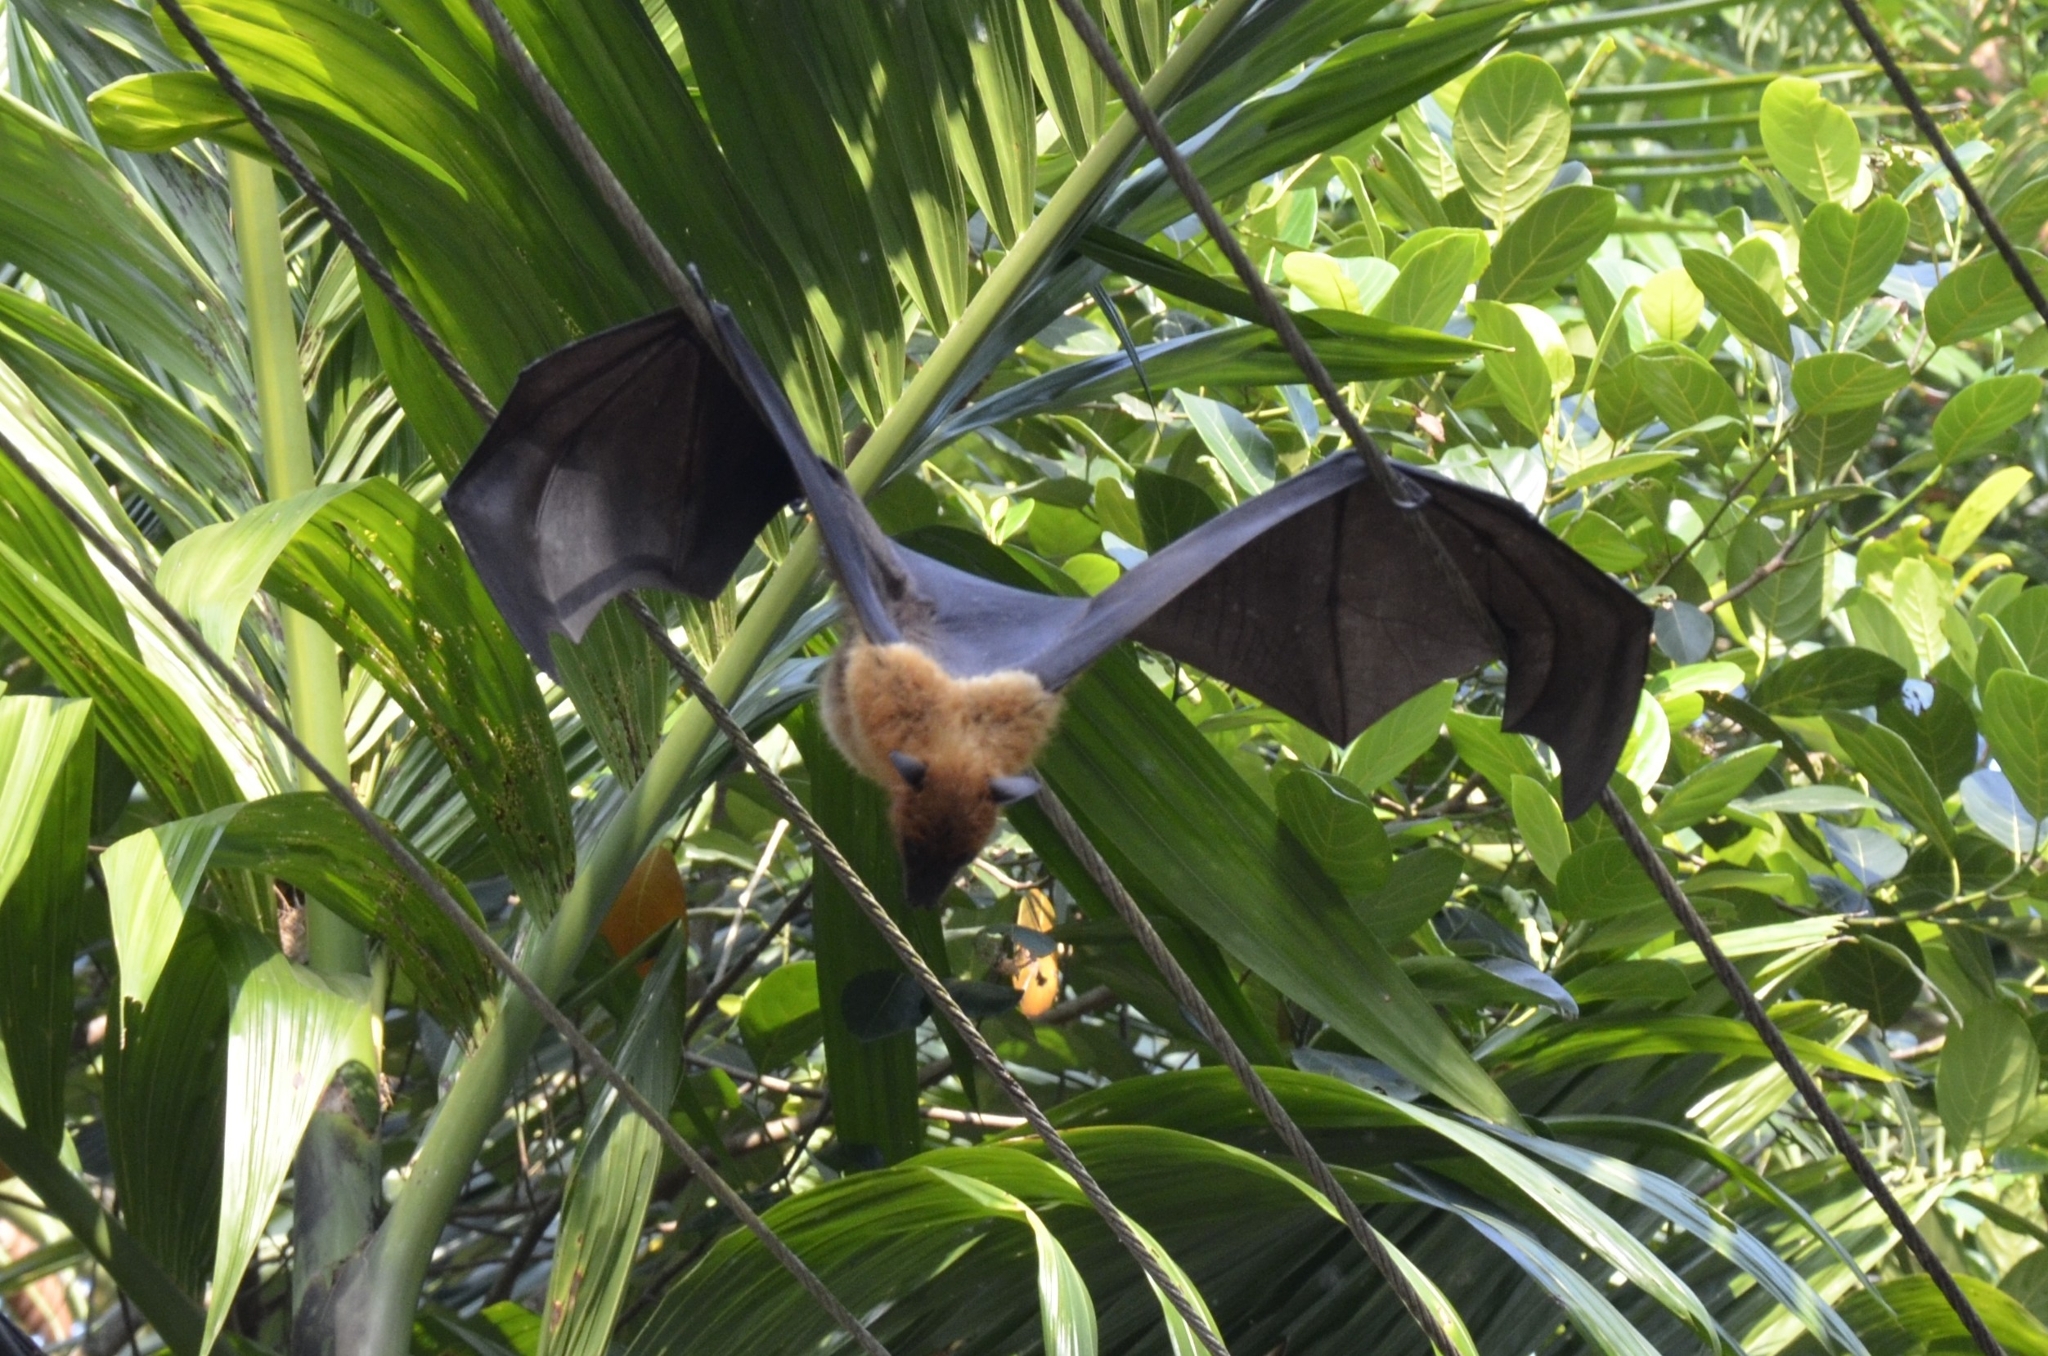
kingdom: Animalia
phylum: Chordata
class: Mammalia
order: Chiroptera
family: Pteropodidae
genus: Pteropus
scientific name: Pteropus vampyrus
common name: Large flying fox
